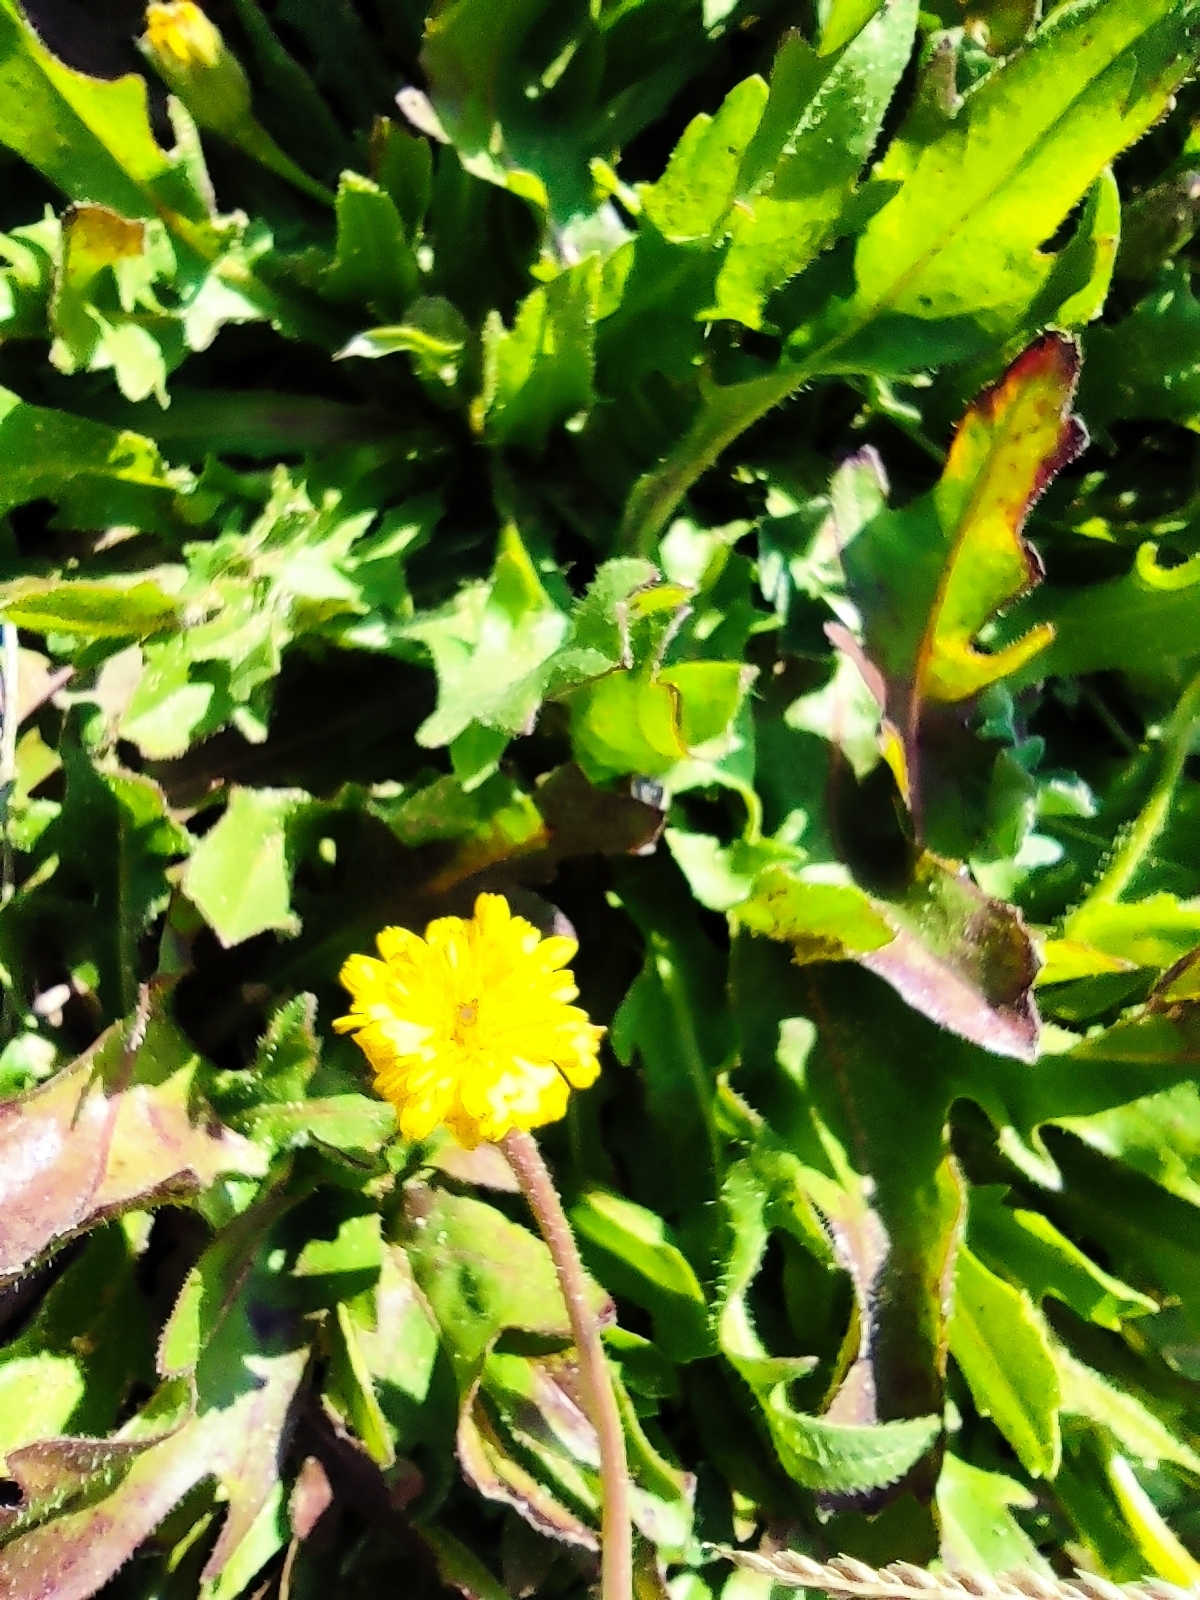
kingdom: Plantae
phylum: Tracheophyta
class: Magnoliopsida
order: Asterales
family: Asteraceae
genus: Hedypnois
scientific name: Hedypnois rhagadioloides
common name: Cretan weed
